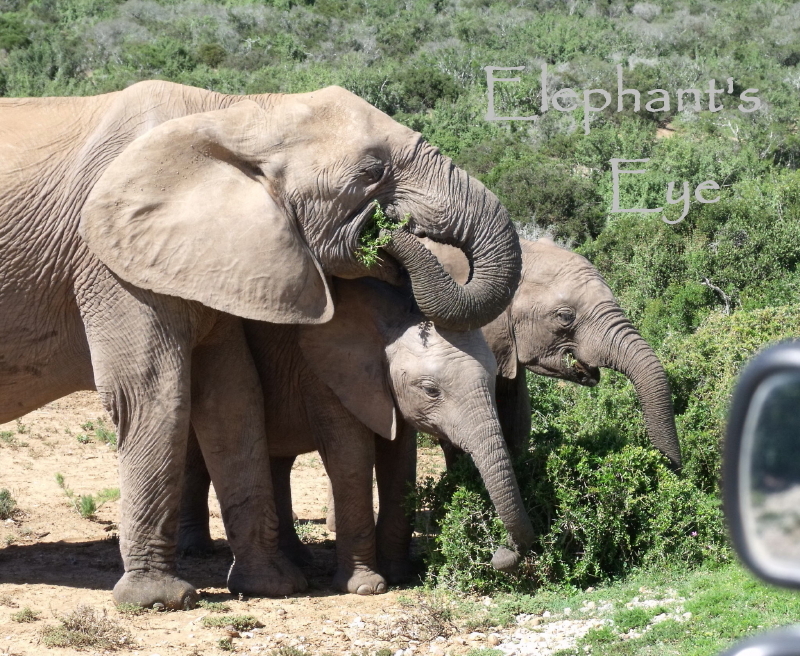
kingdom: Animalia
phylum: Chordata
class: Mammalia
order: Proboscidea
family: Elephantidae
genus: Loxodonta
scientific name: Loxodonta africana
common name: African elephant
